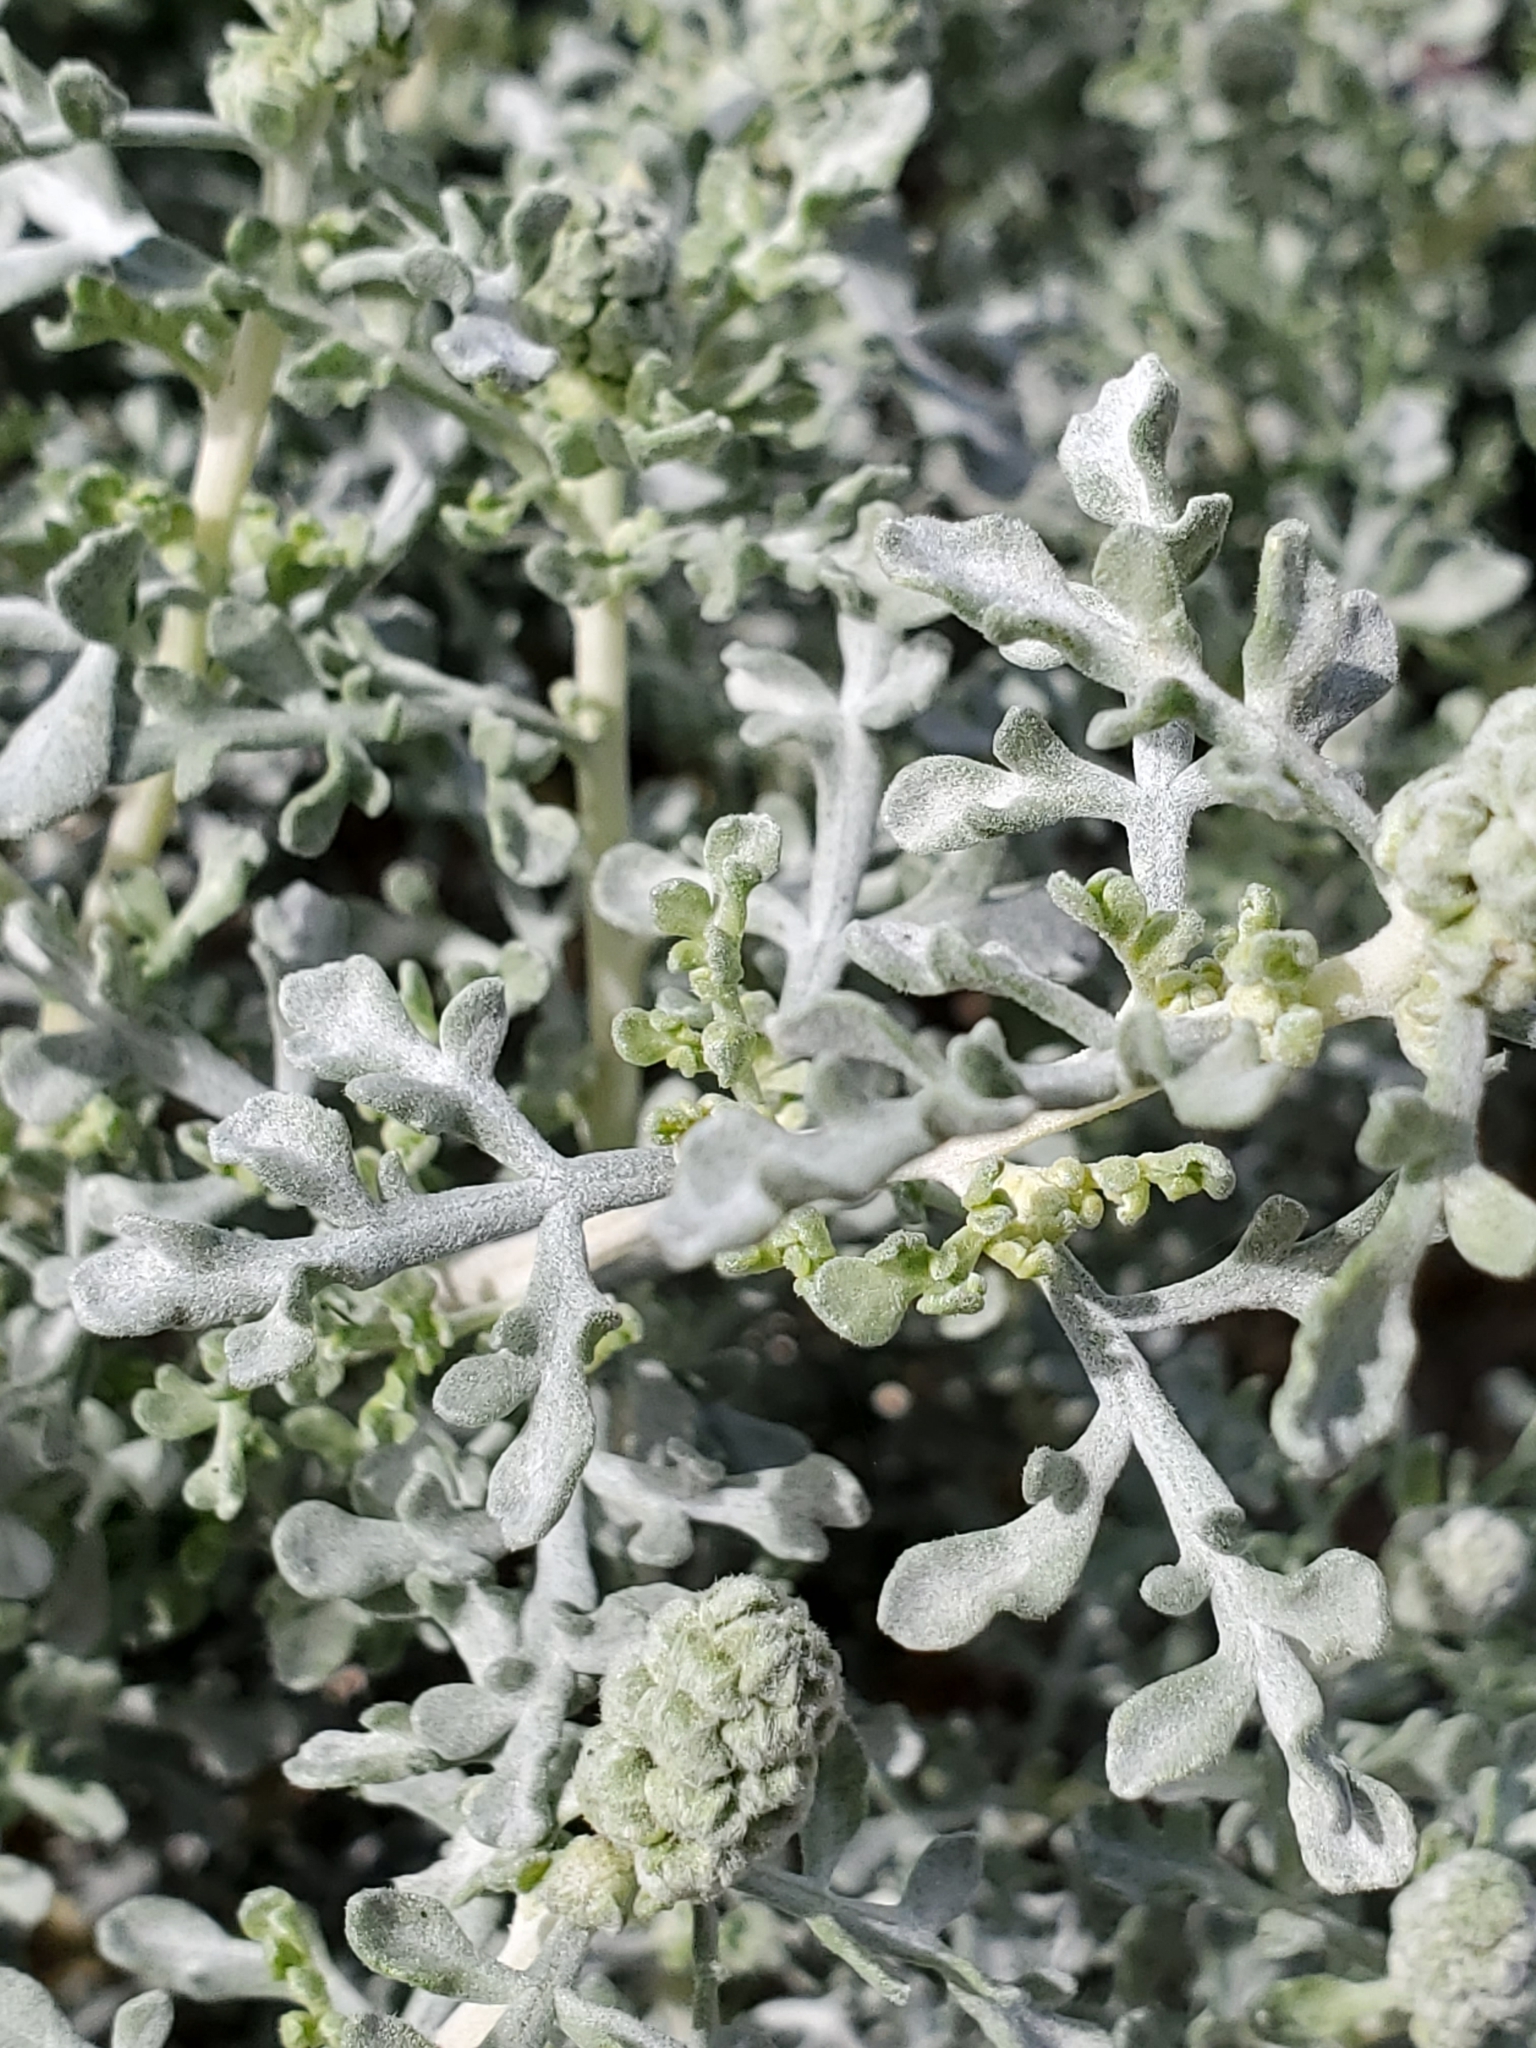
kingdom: Plantae
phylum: Tracheophyta
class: Magnoliopsida
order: Asterales
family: Asteraceae
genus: Ambrosia
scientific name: Ambrosia dumosa
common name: Bur-sage
